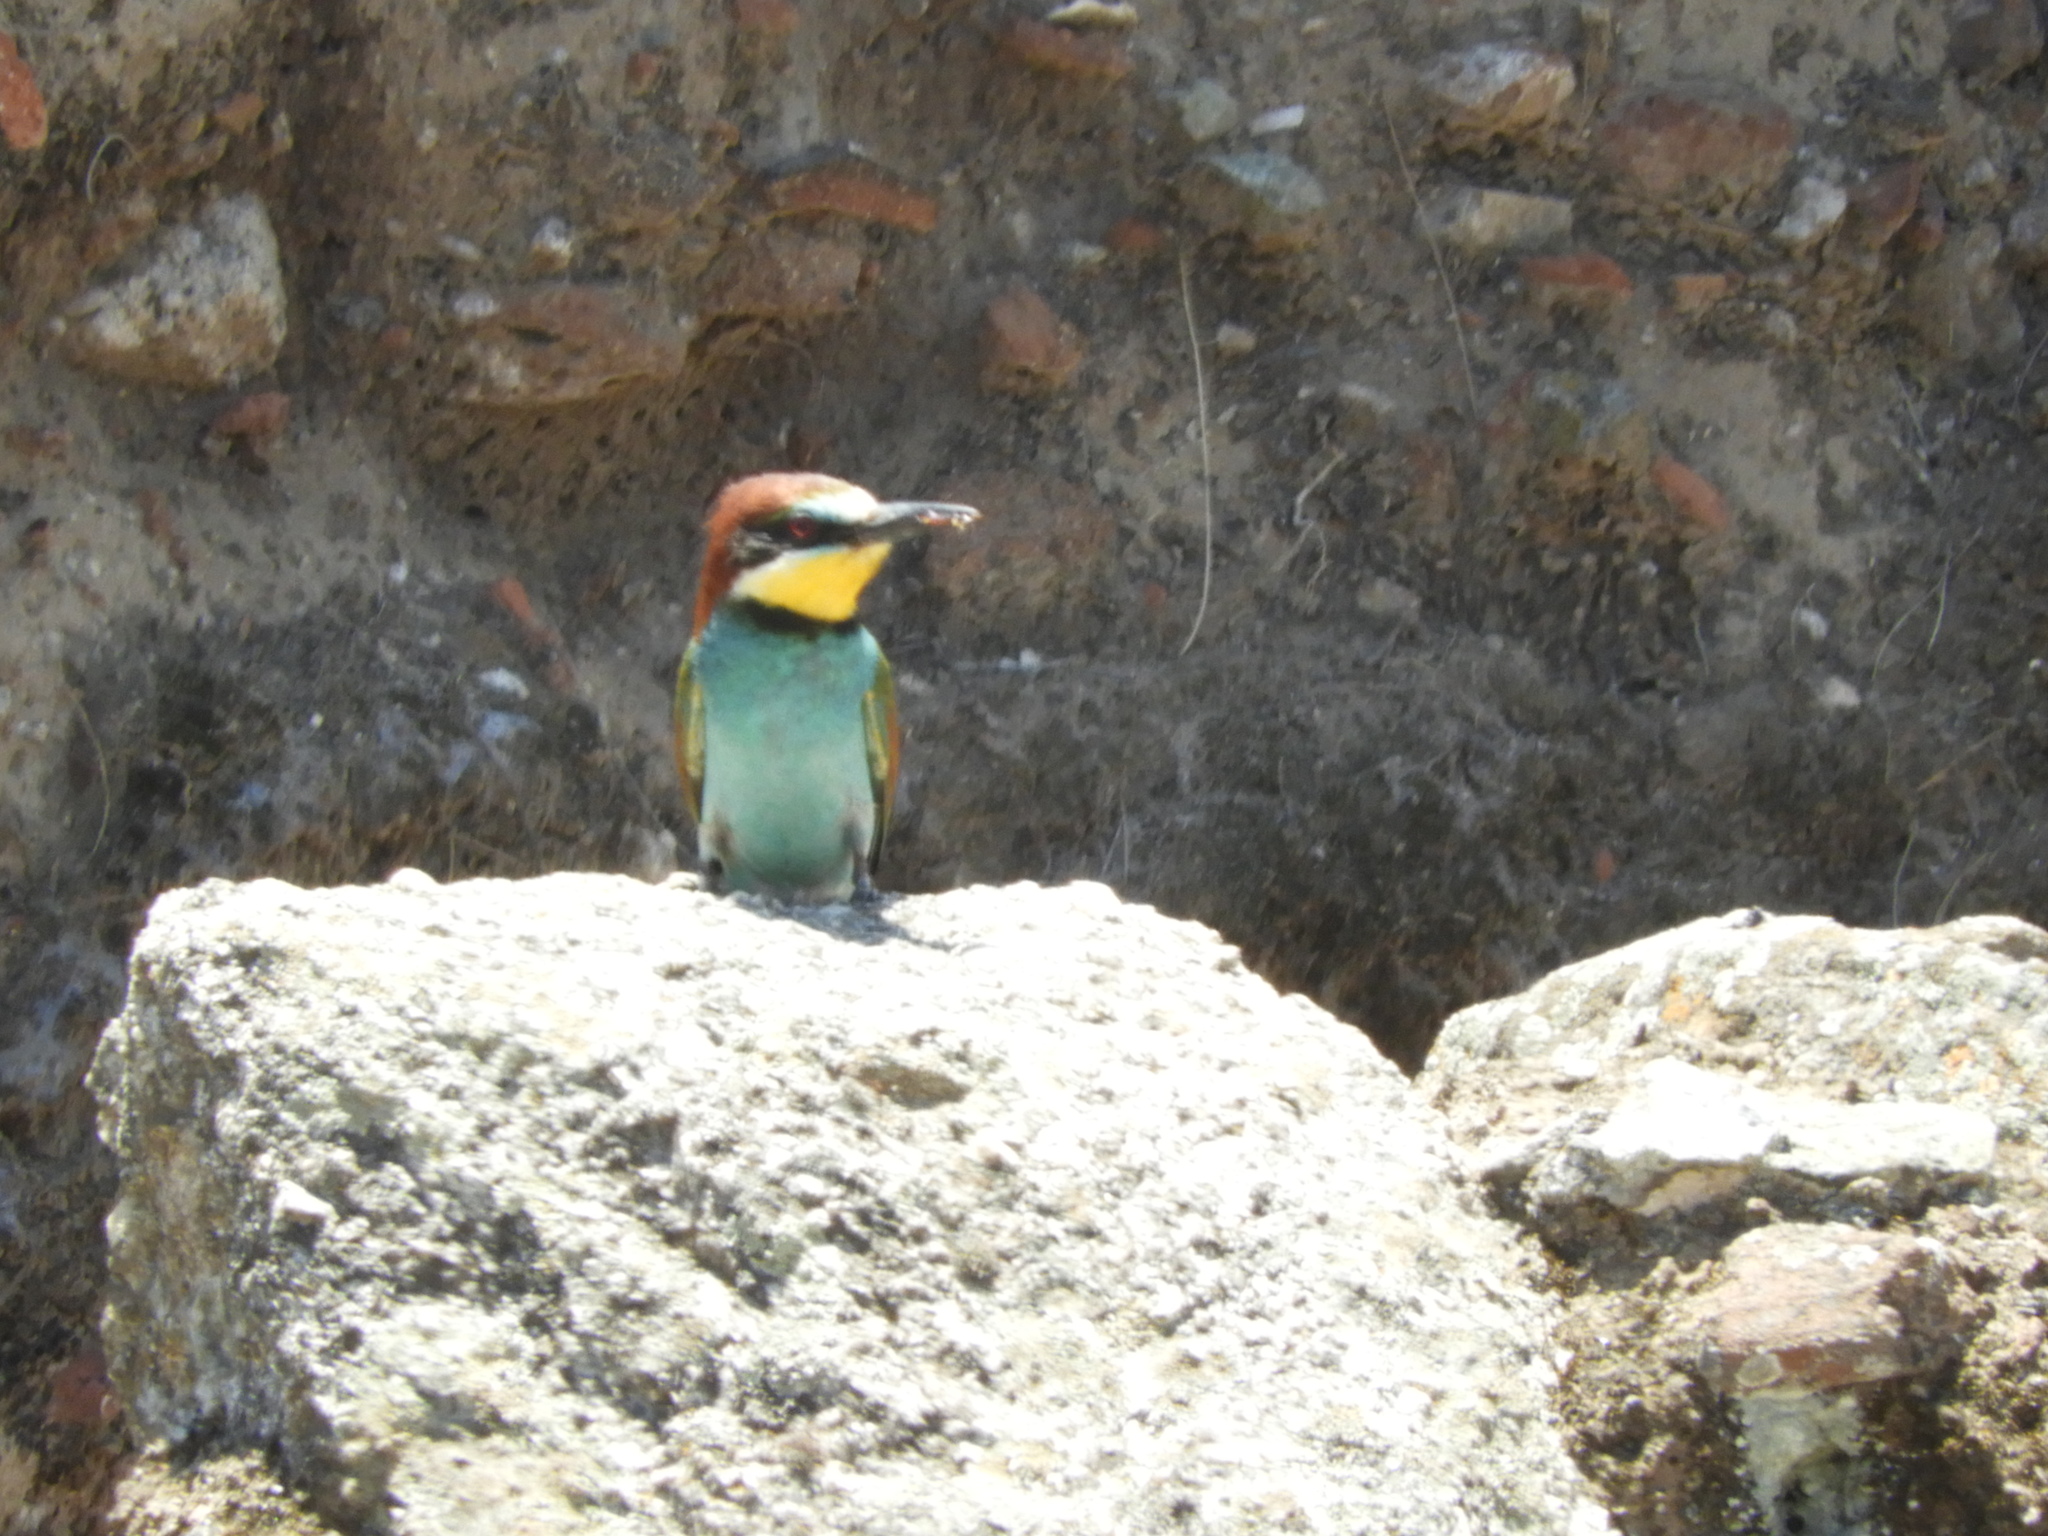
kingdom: Animalia
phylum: Chordata
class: Aves
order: Coraciiformes
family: Meropidae
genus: Merops
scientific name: Merops apiaster
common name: European bee-eater
